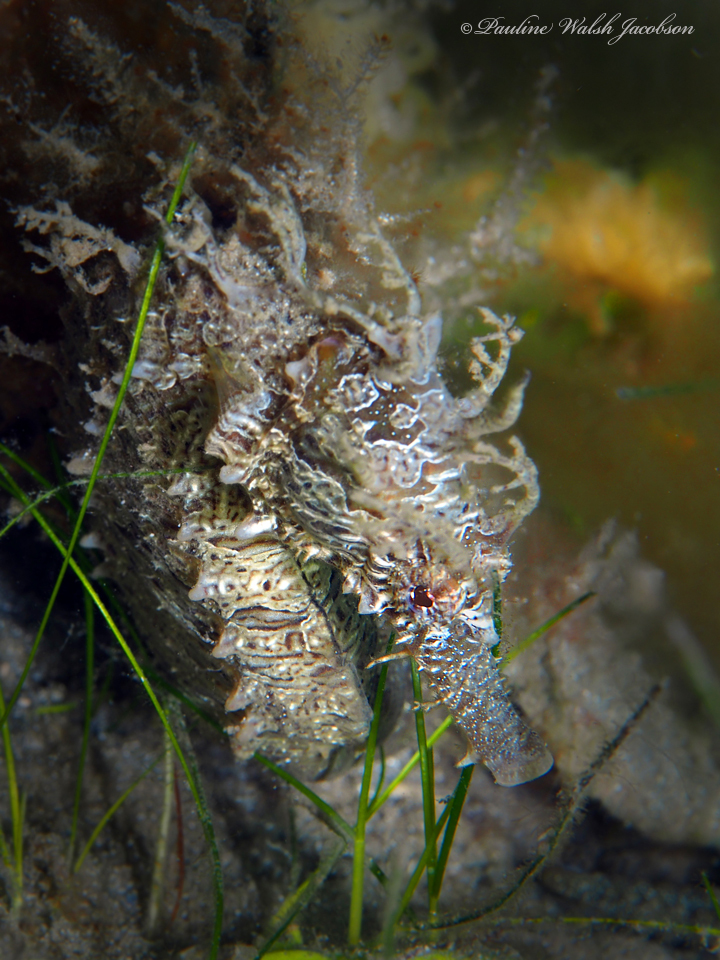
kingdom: Animalia
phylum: Chordata
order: Syngnathiformes
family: Syngnathidae
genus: Hippocampus
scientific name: Hippocampus erectus
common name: Lined seahorse
